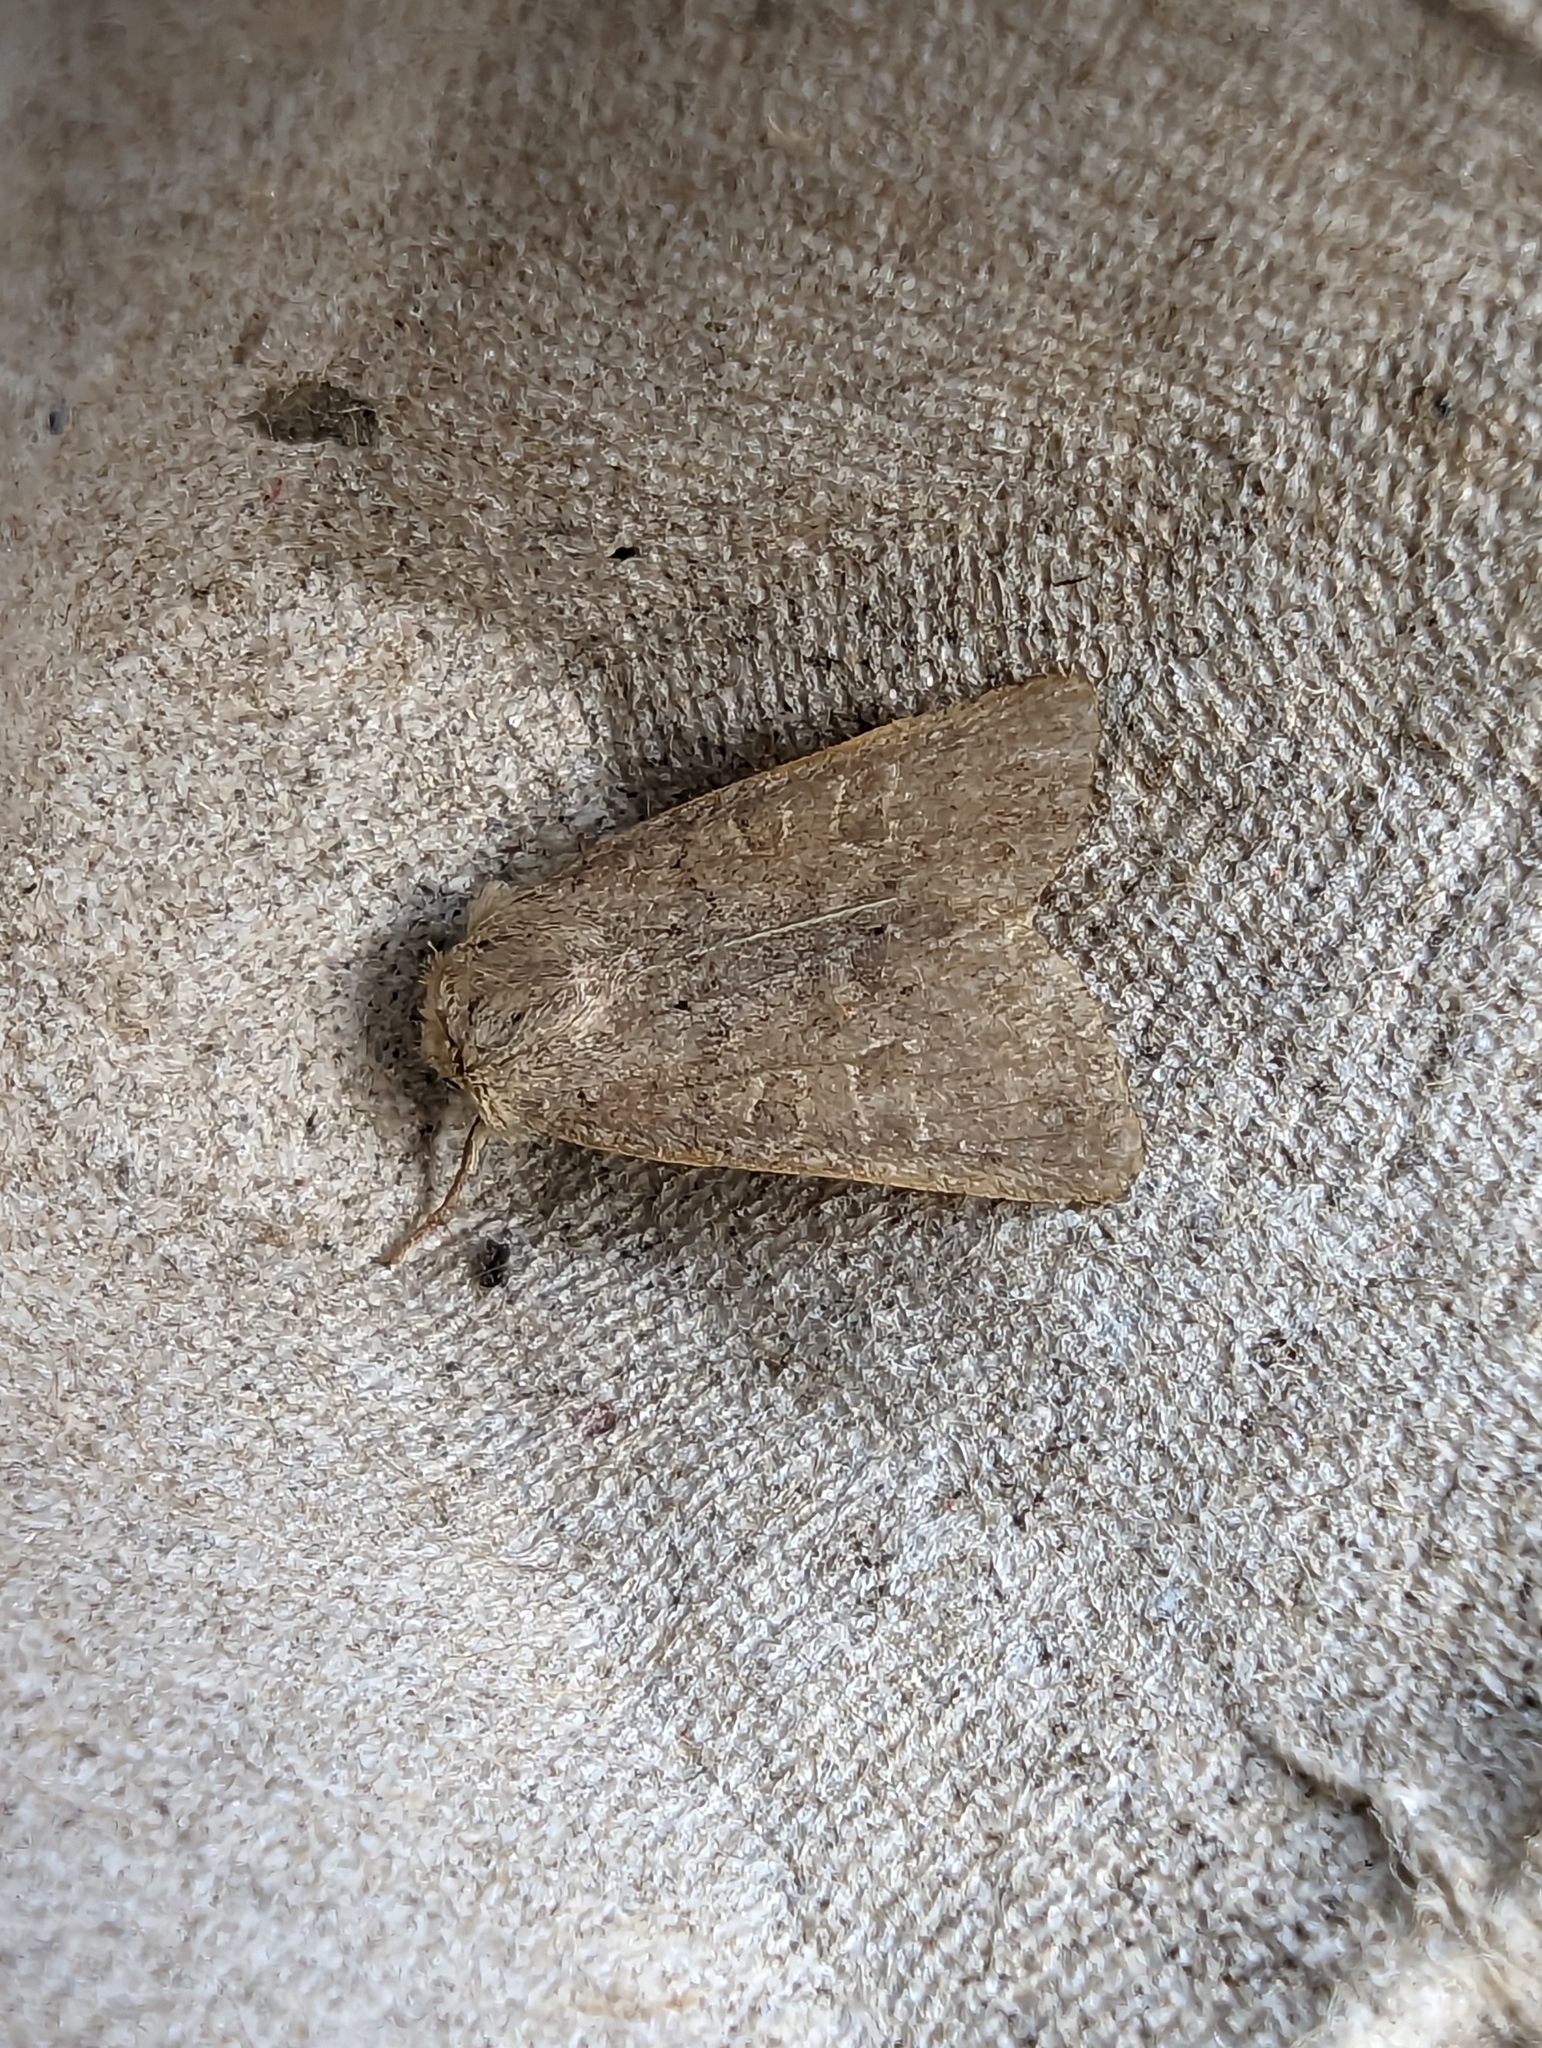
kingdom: Animalia
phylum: Arthropoda
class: Insecta
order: Lepidoptera
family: Noctuidae
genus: Hoplodrina
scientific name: Hoplodrina ambigua
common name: Vine's rustic
